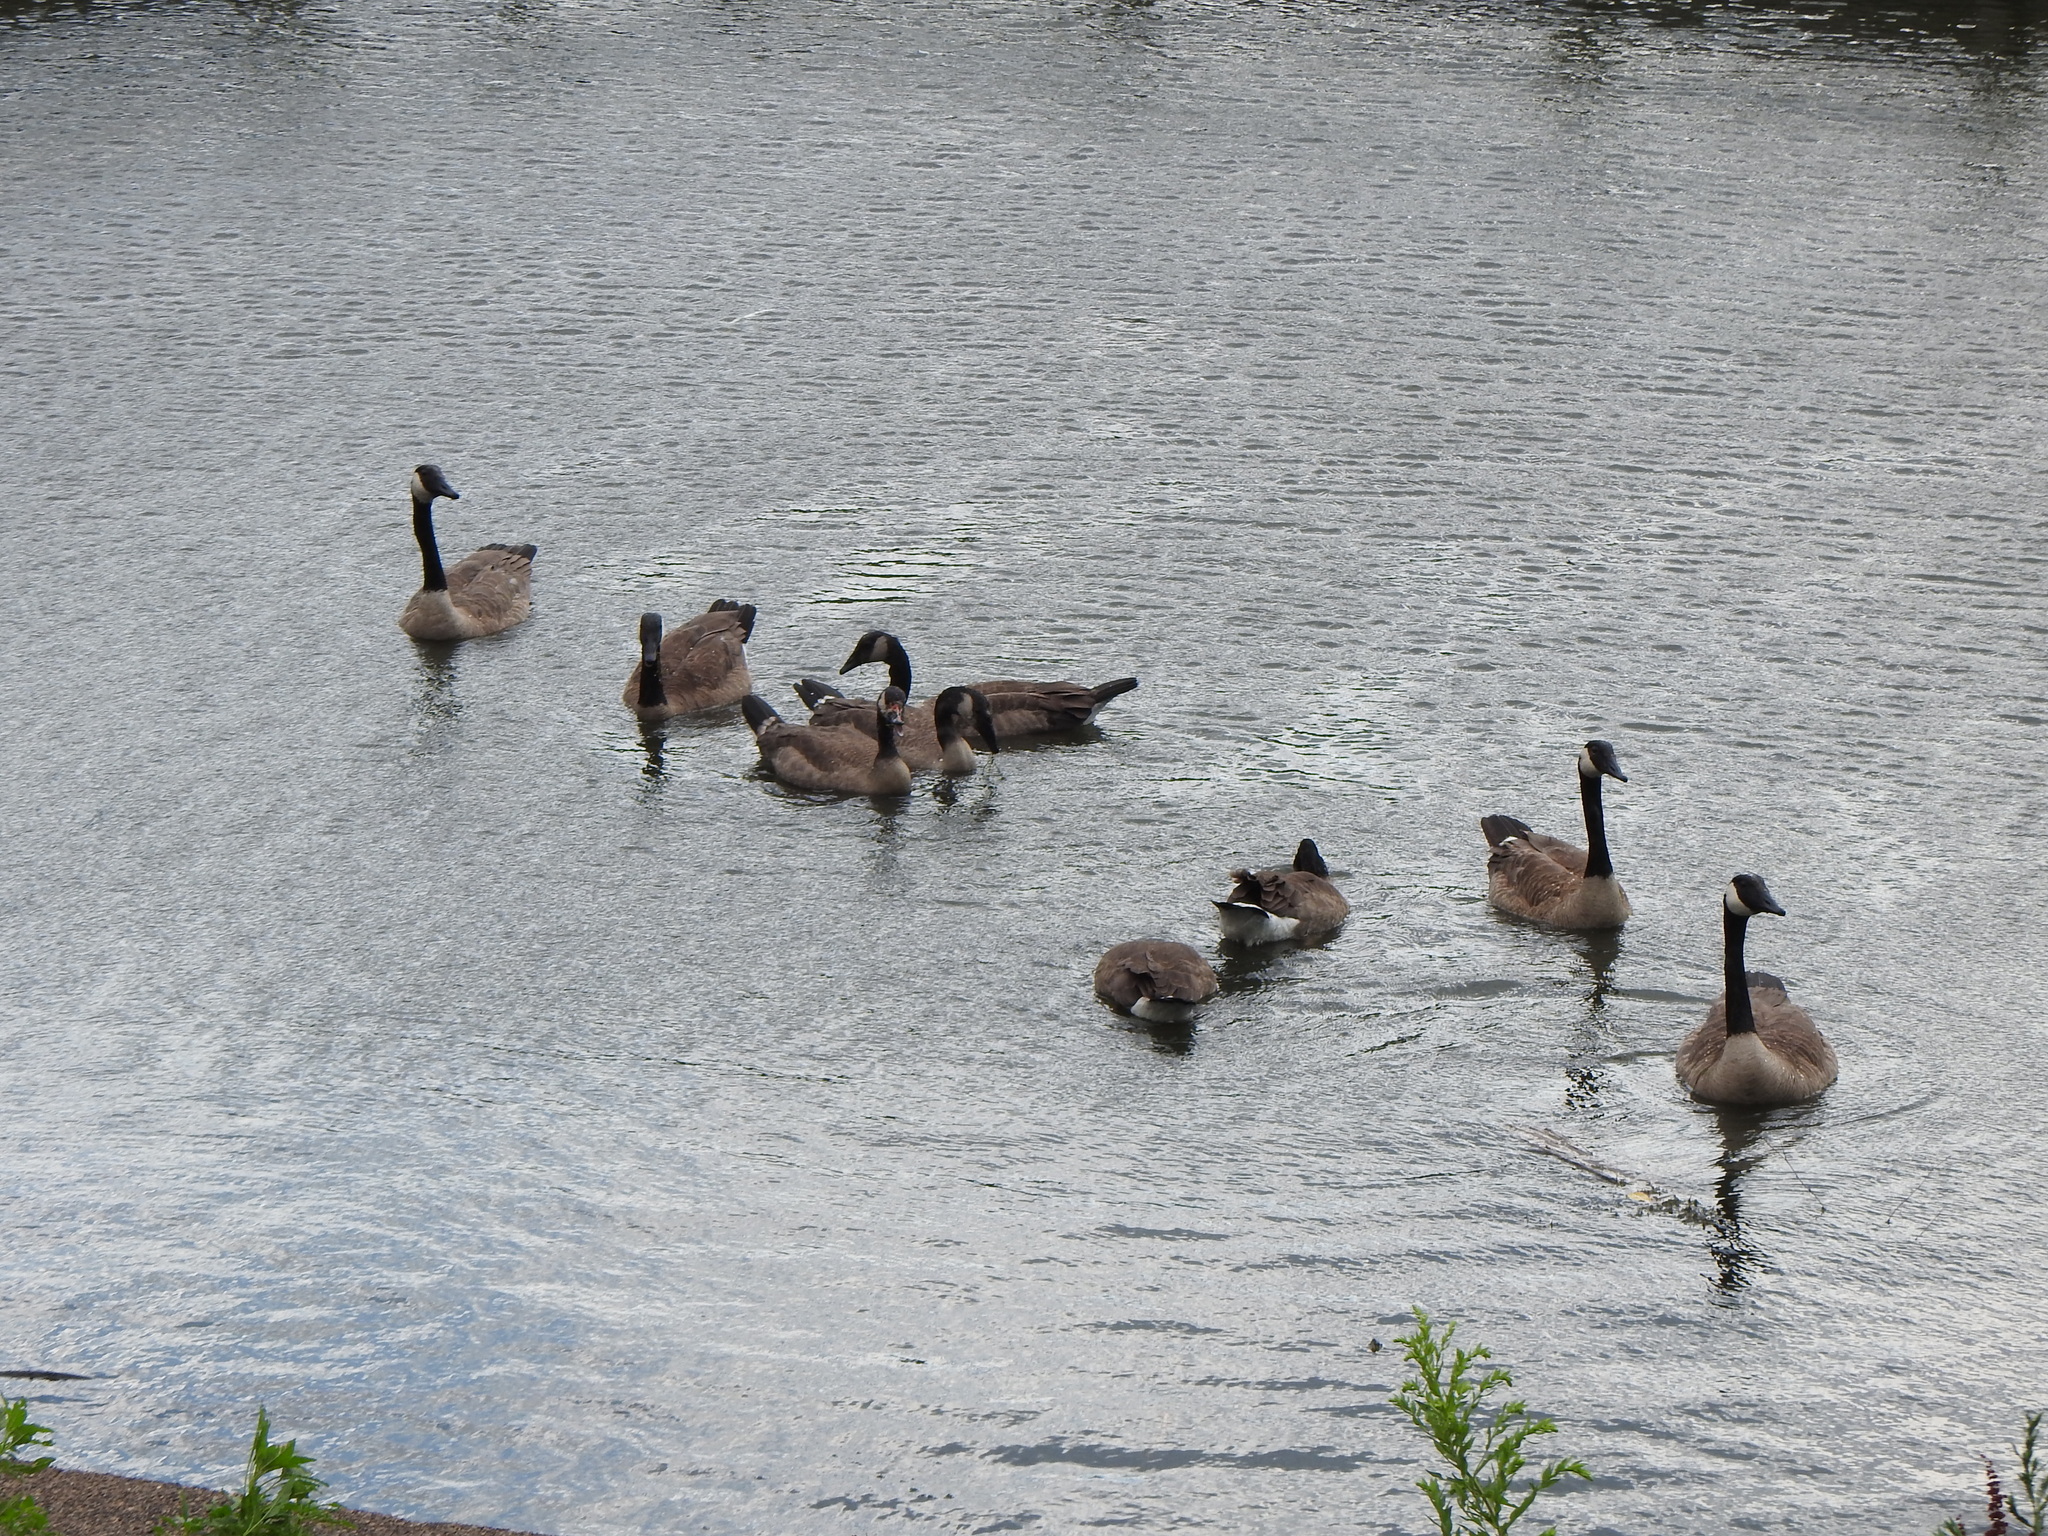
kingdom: Animalia
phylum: Chordata
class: Aves
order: Anseriformes
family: Anatidae
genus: Branta
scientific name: Branta canadensis
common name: Canada goose
